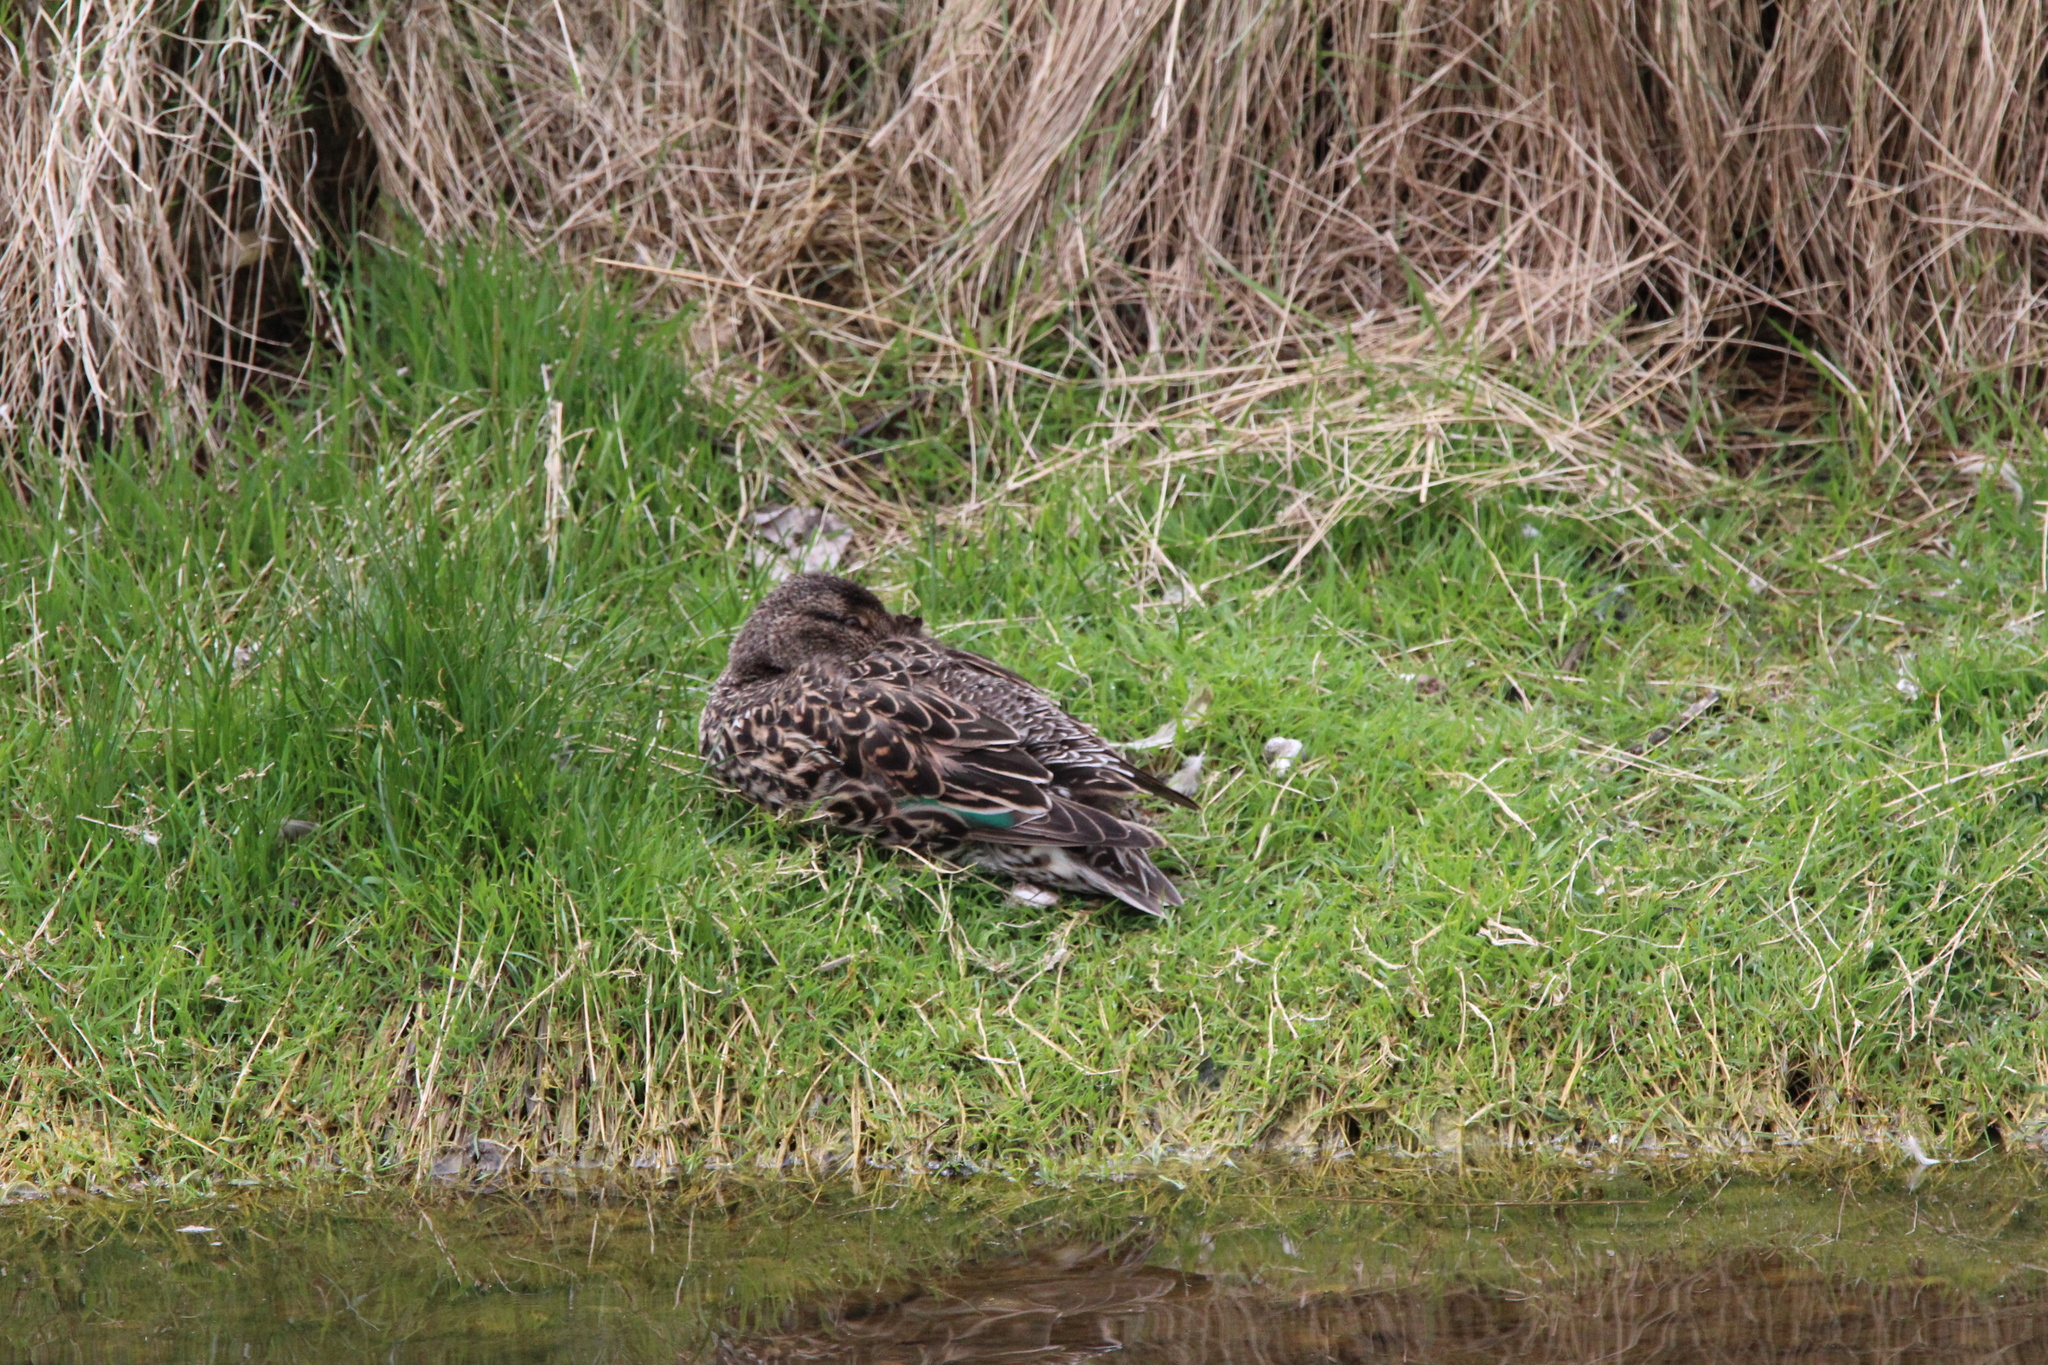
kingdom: Animalia
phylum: Chordata
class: Aves
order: Anseriformes
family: Anatidae
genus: Anas
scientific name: Anas crecca
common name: Eurasian teal
